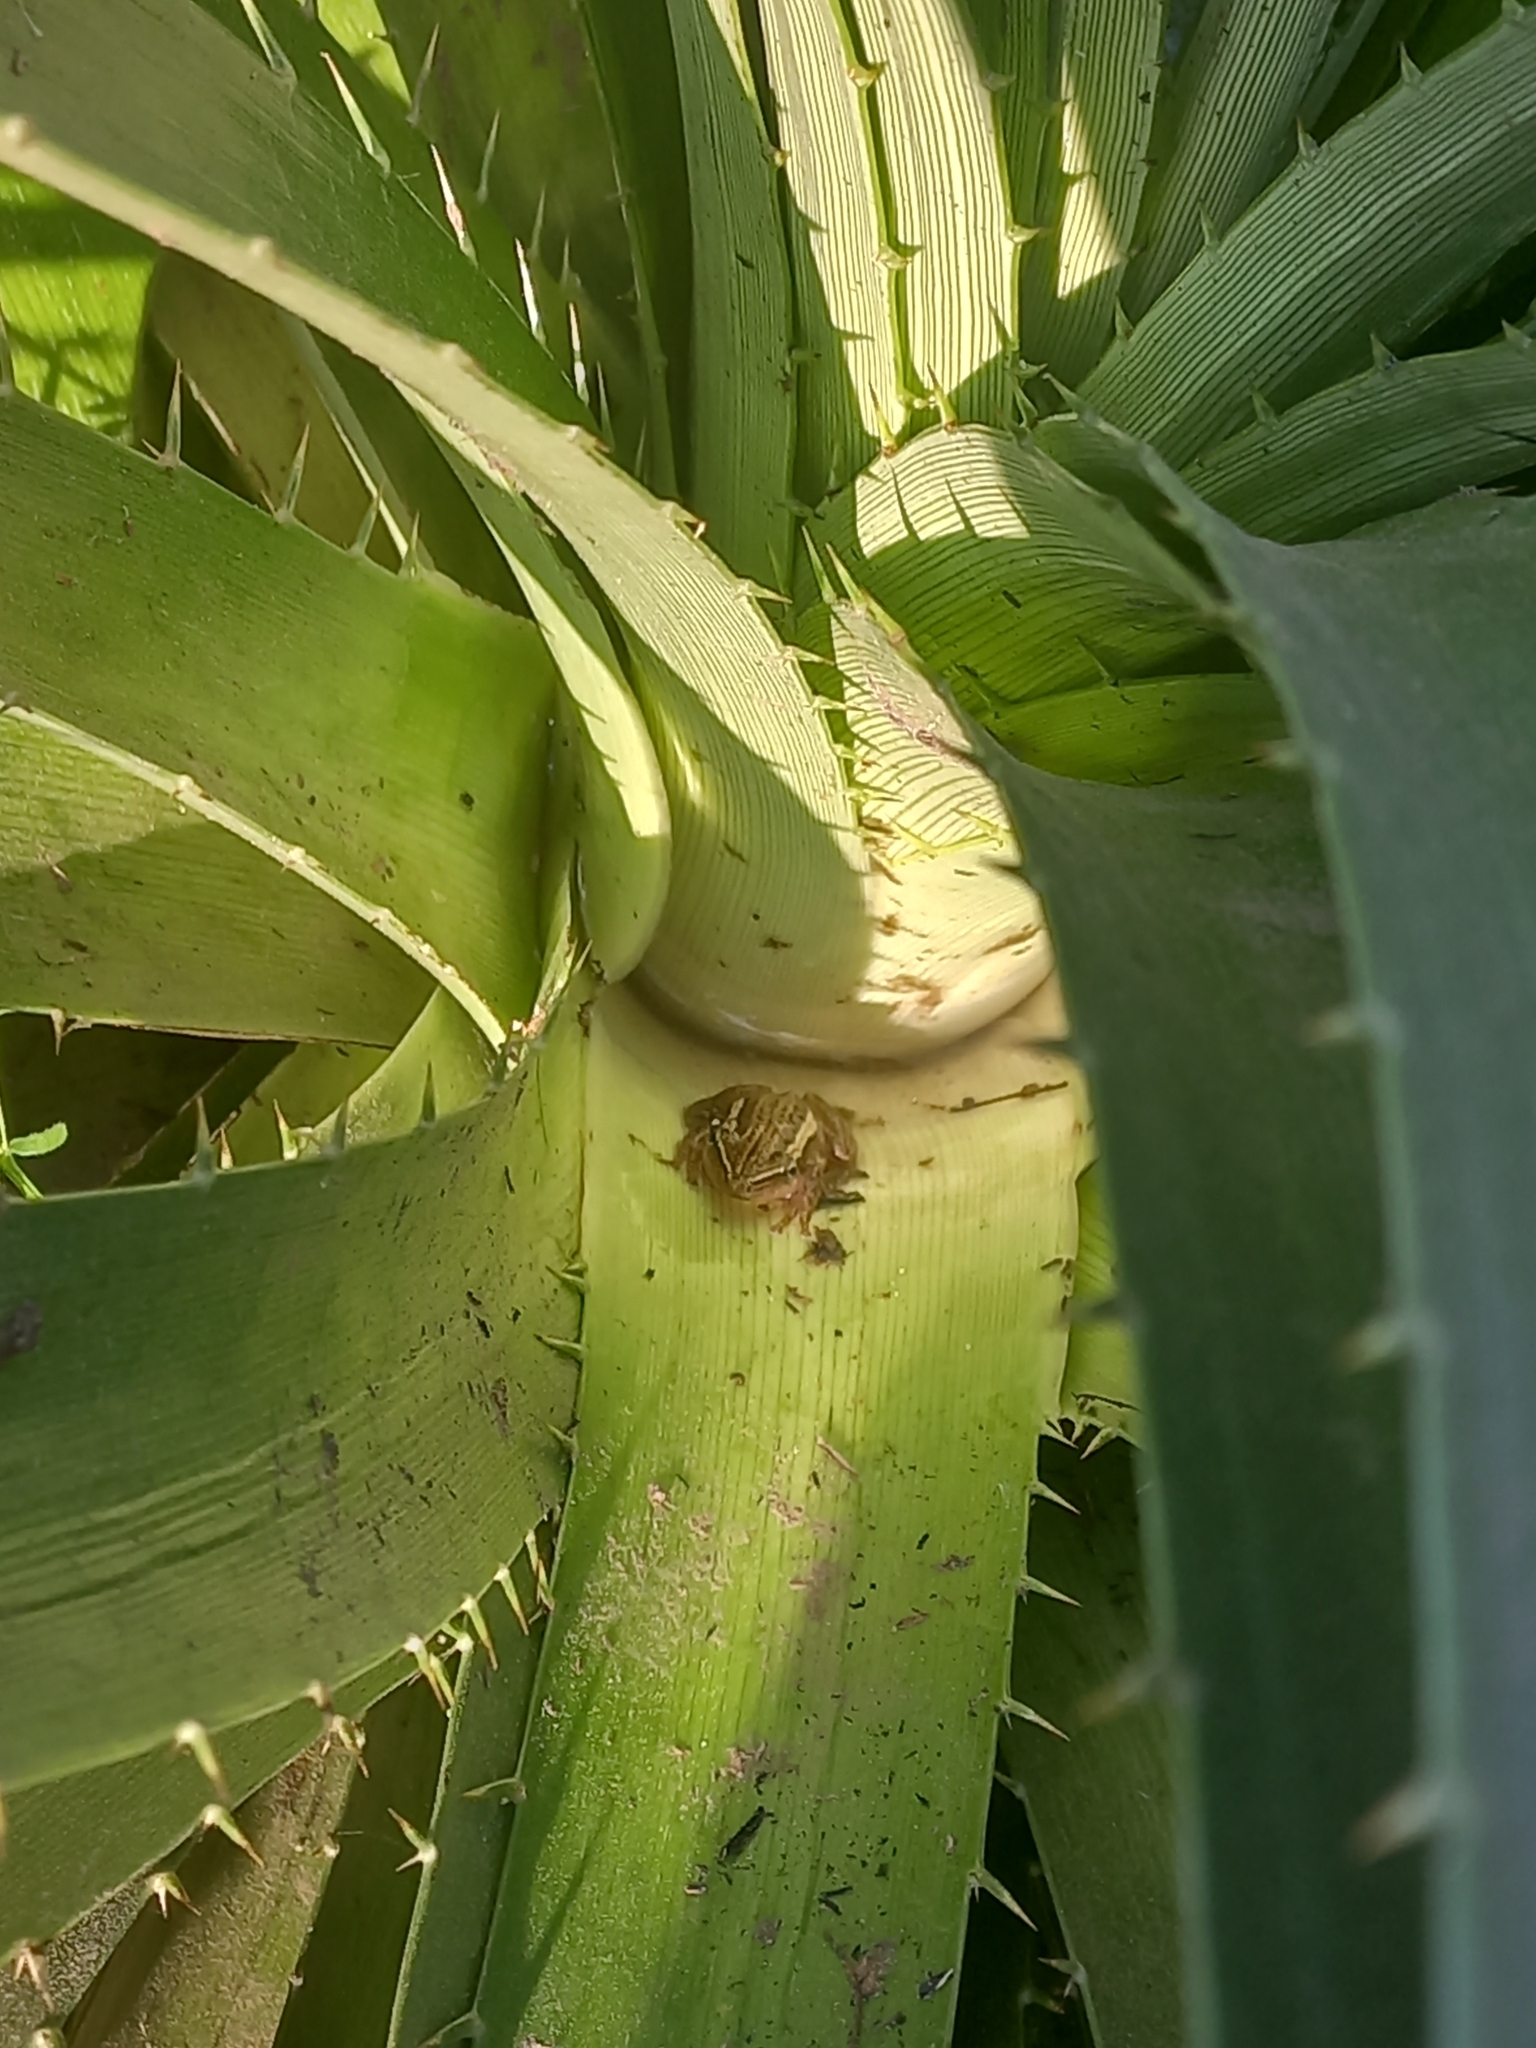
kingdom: Animalia
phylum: Chordata
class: Amphibia
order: Anura
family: Hylidae
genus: Scinax
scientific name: Scinax squalirostris
